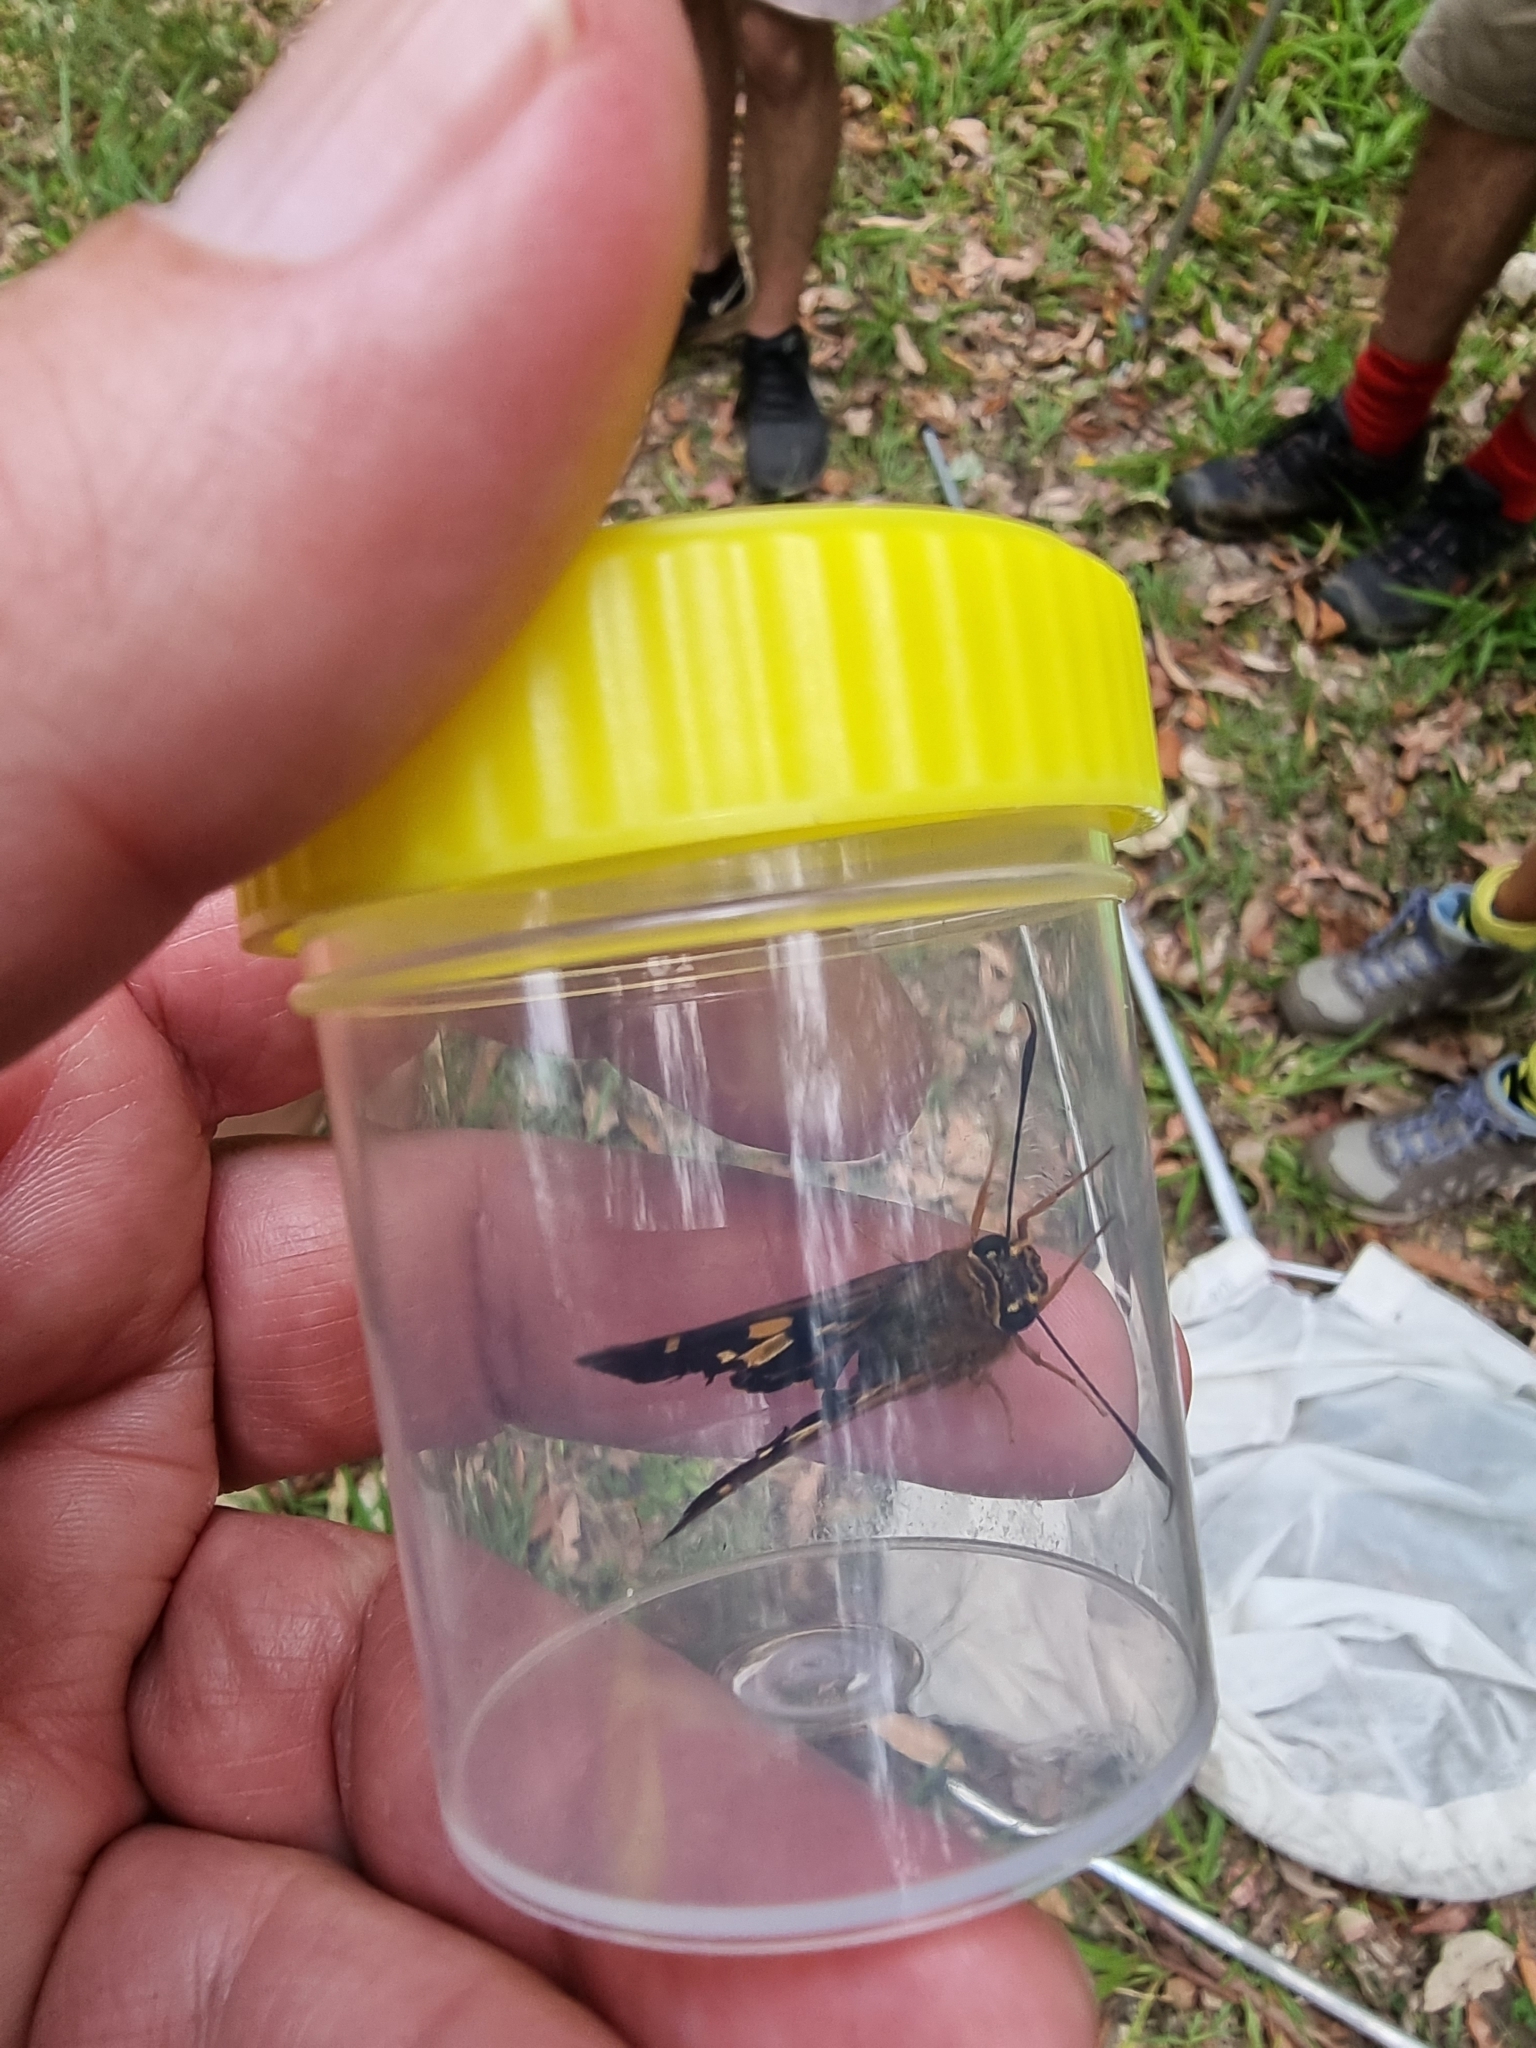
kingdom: Animalia
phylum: Arthropoda
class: Insecta
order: Lepidoptera
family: Hesperiidae
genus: Trapezites
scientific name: Trapezites symmomus
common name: Splendid ochre
